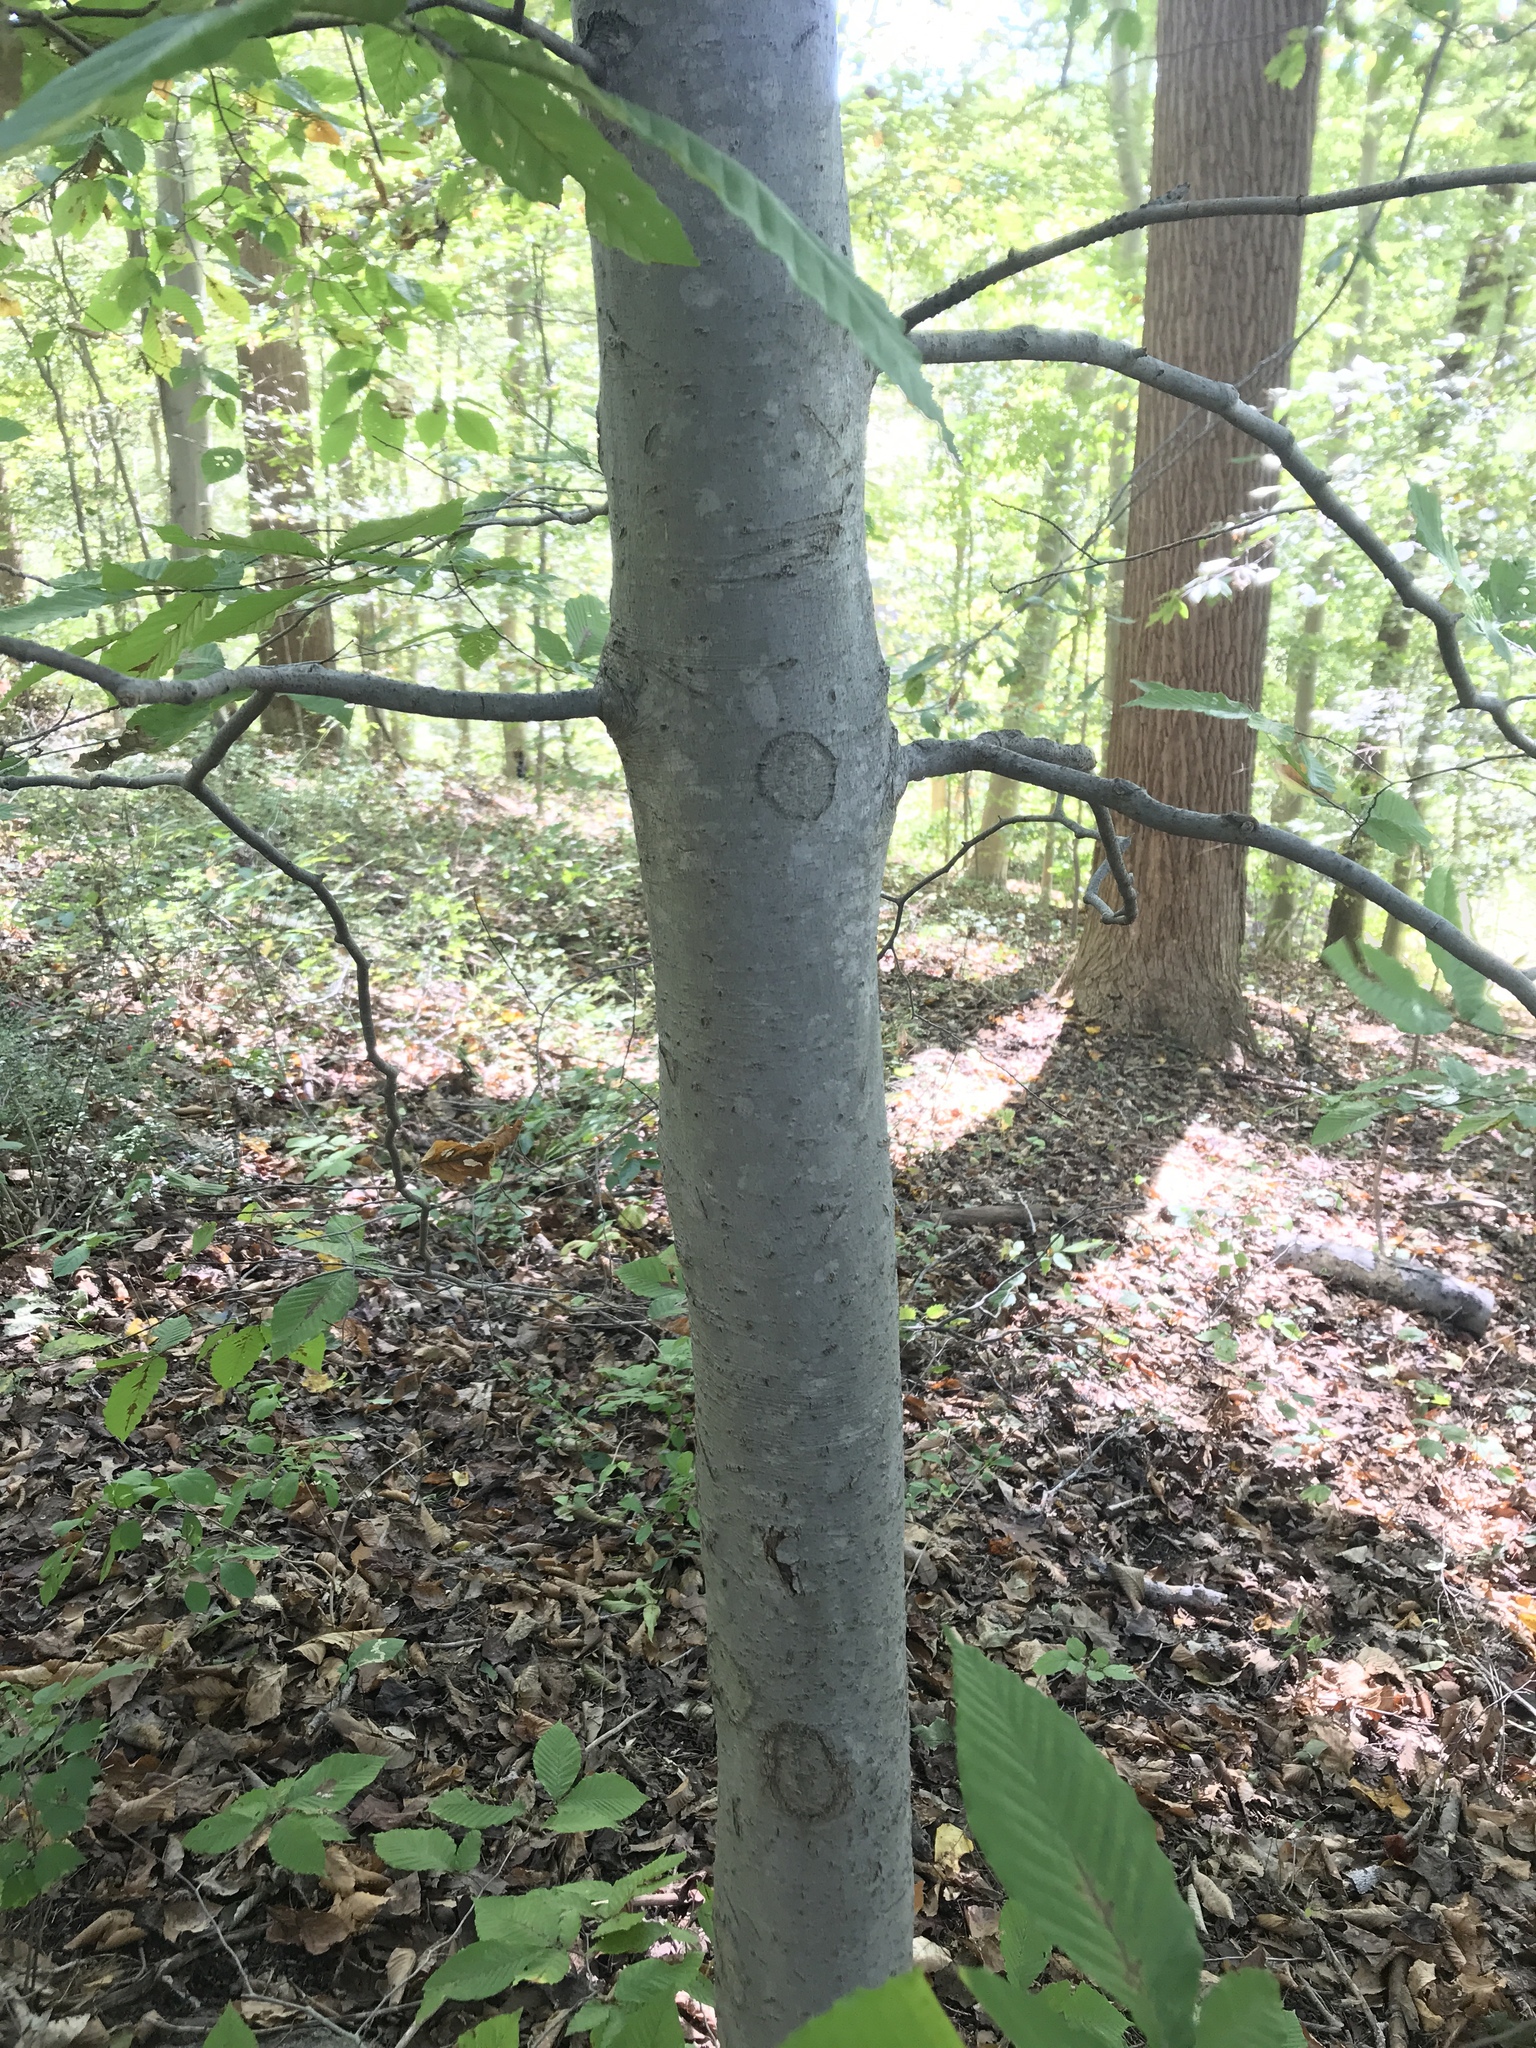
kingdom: Plantae
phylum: Tracheophyta
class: Magnoliopsida
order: Fagales
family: Fagaceae
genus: Fagus
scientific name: Fagus grandifolia
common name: American beech
